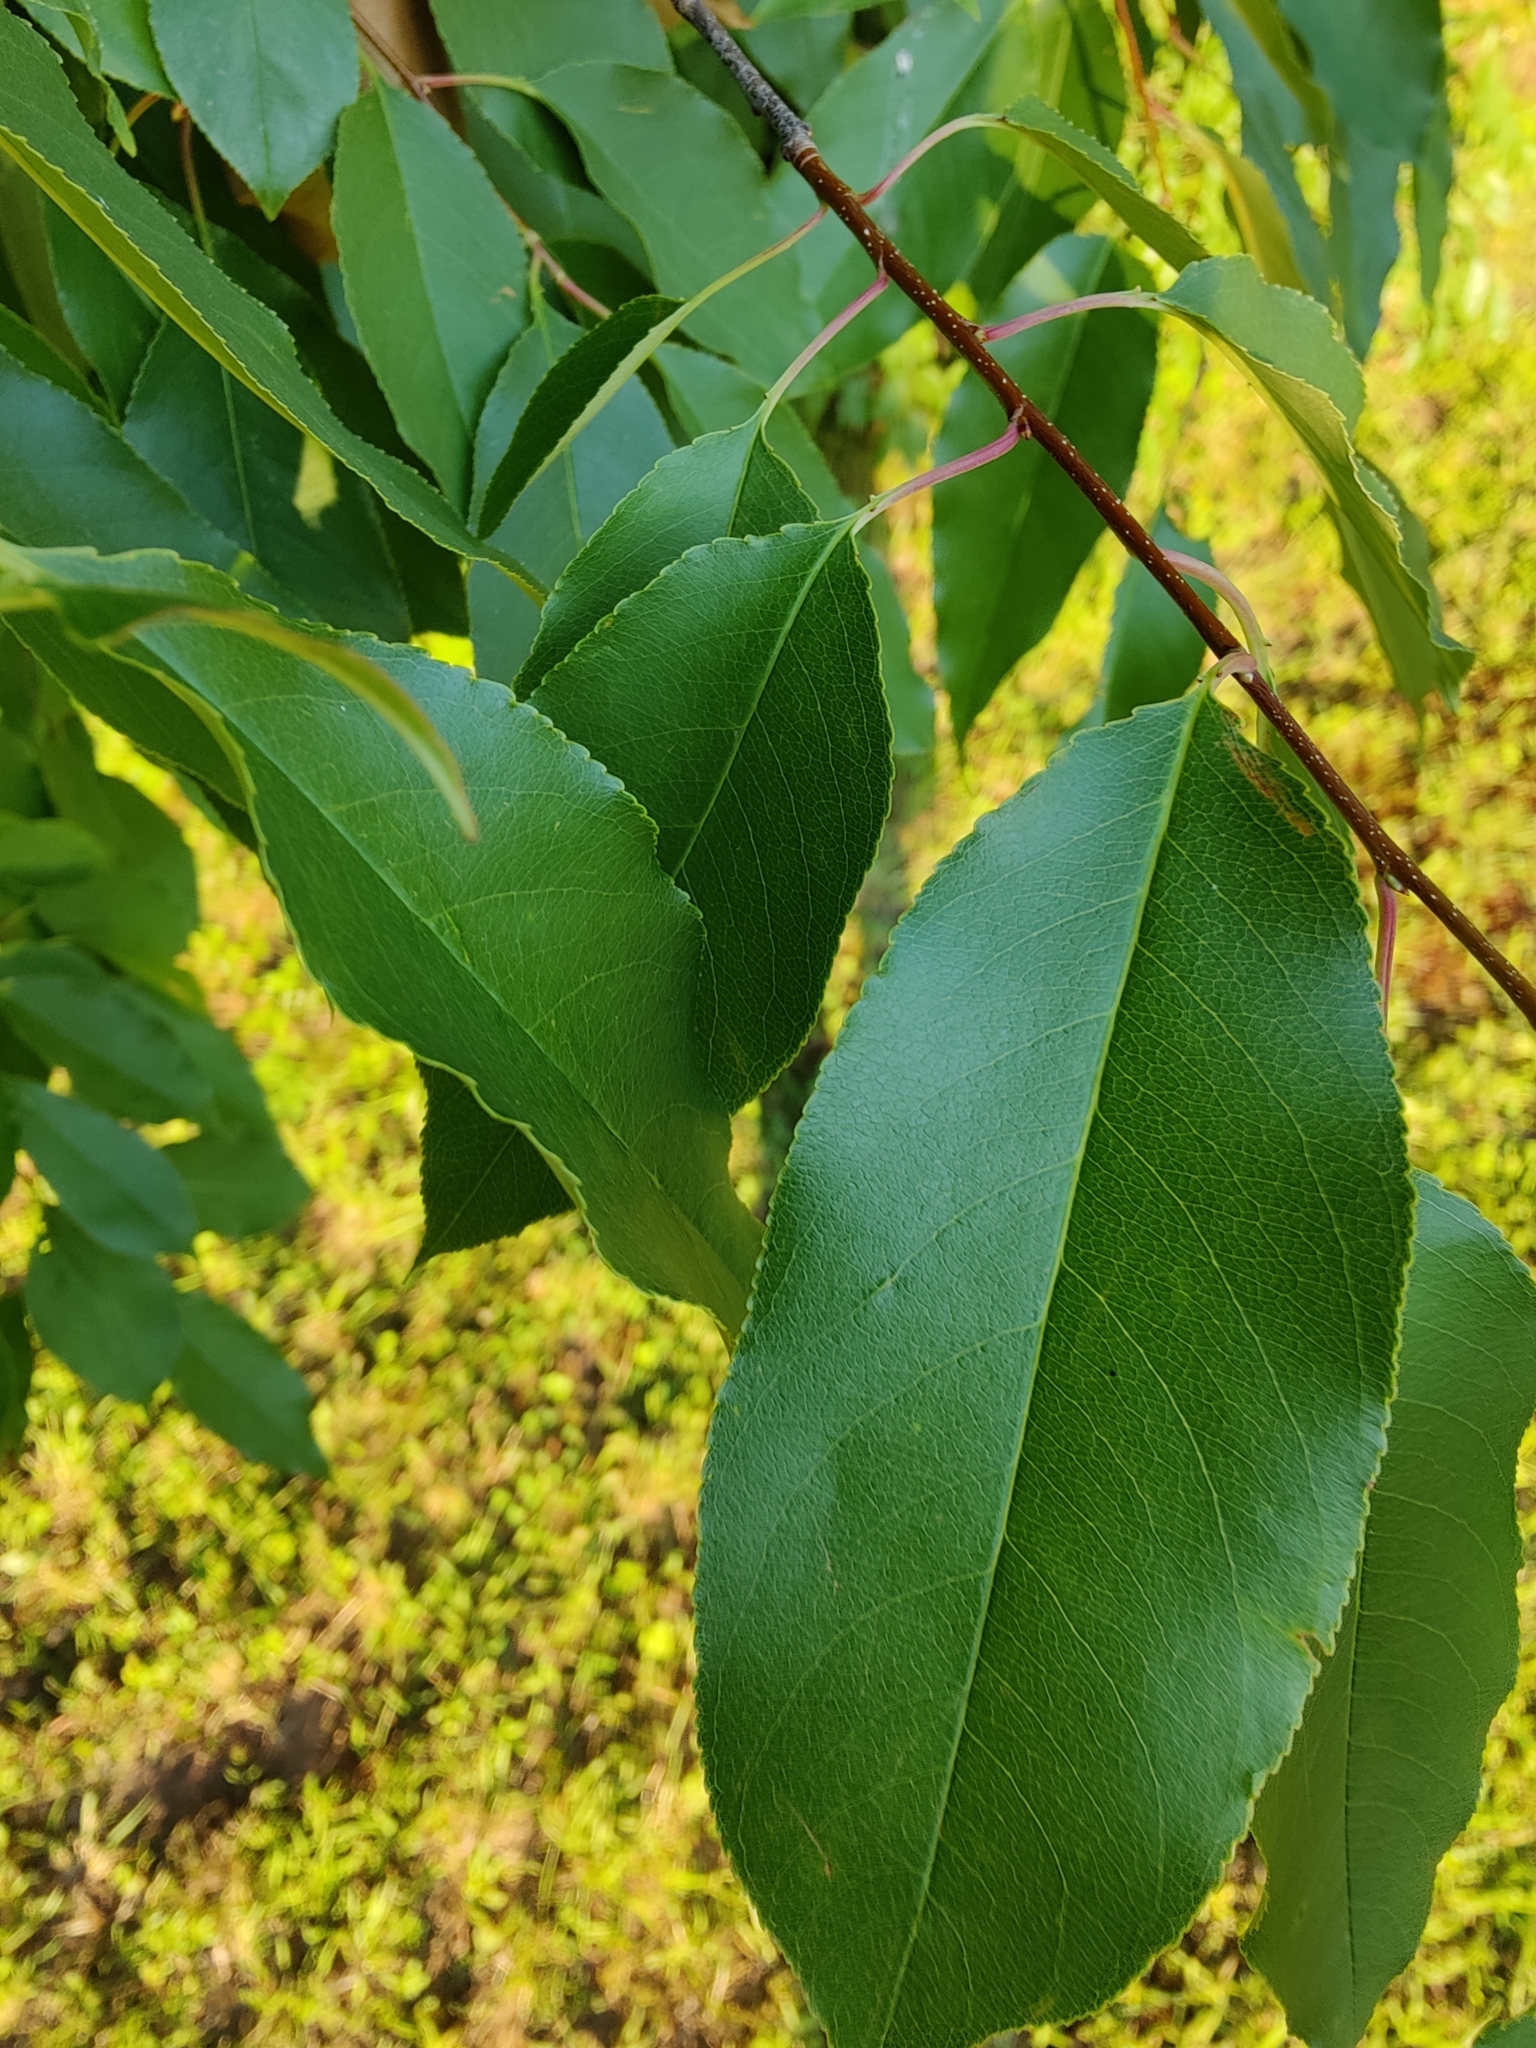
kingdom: Plantae
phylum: Tracheophyta
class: Magnoliopsida
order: Rosales
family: Rosaceae
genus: Prunus
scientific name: Prunus serotina
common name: Black cherry
